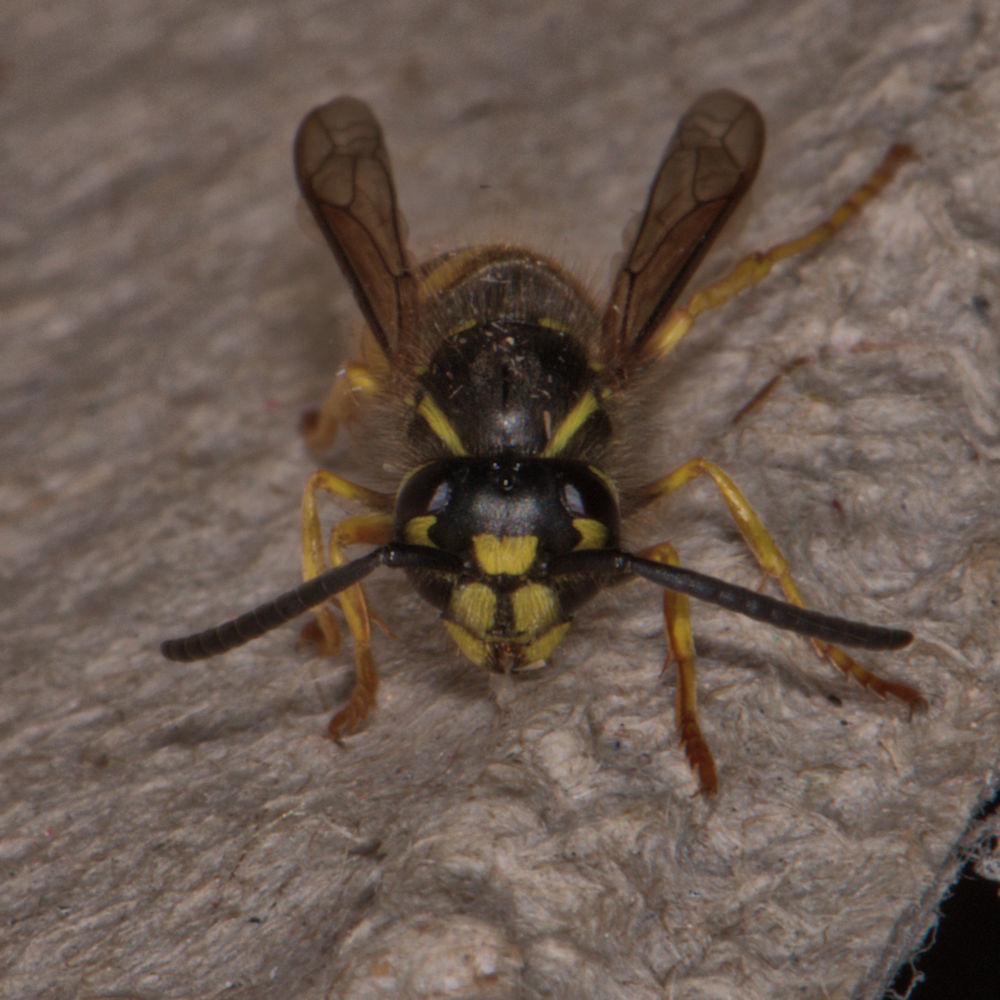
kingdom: Animalia
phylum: Arthropoda
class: Insecta
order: Hymenoptera
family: Vespidae
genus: Vespula
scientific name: Vespula alascensis
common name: Alaska yellowjacket
